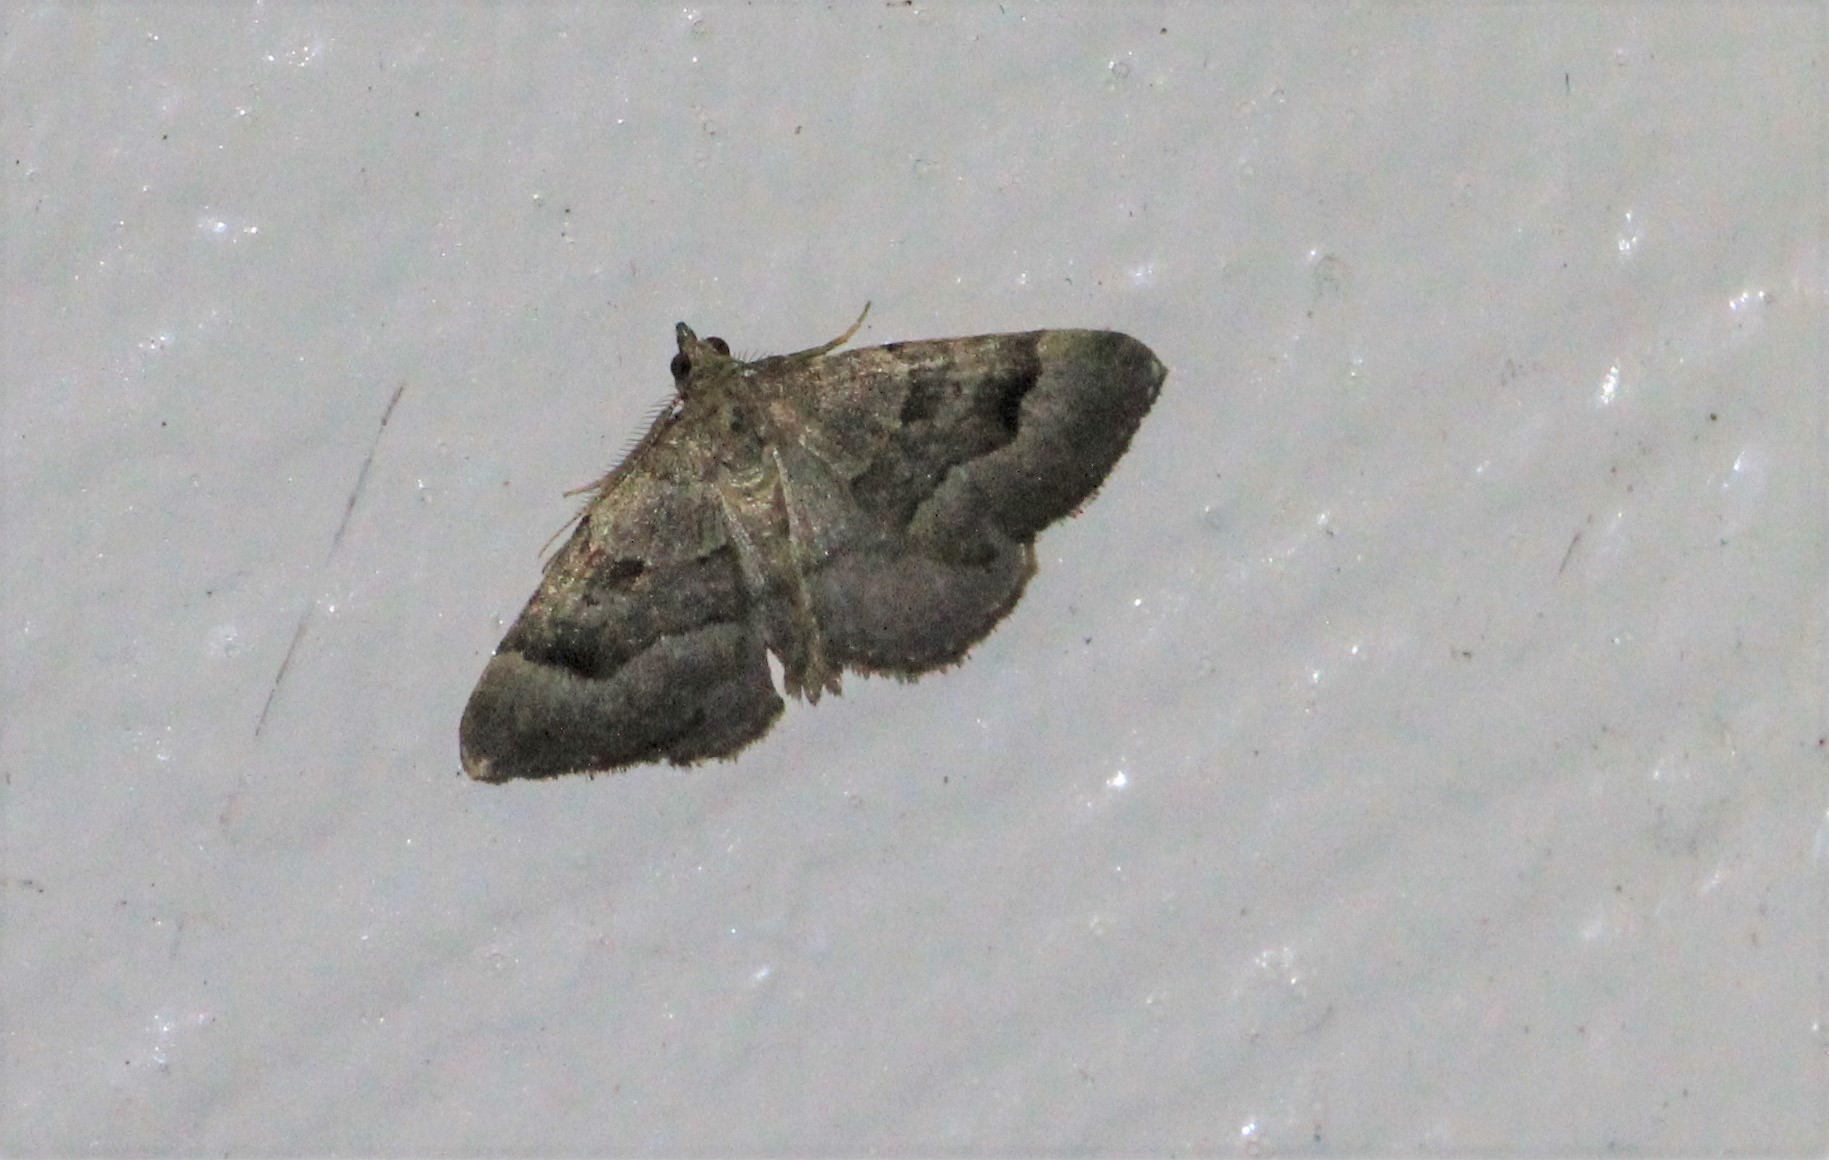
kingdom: Animalia
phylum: Arthropoda
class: Insecta
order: Lepidoptera
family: Geometridae
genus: Epyaxa
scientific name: Epyaxa rosearia
